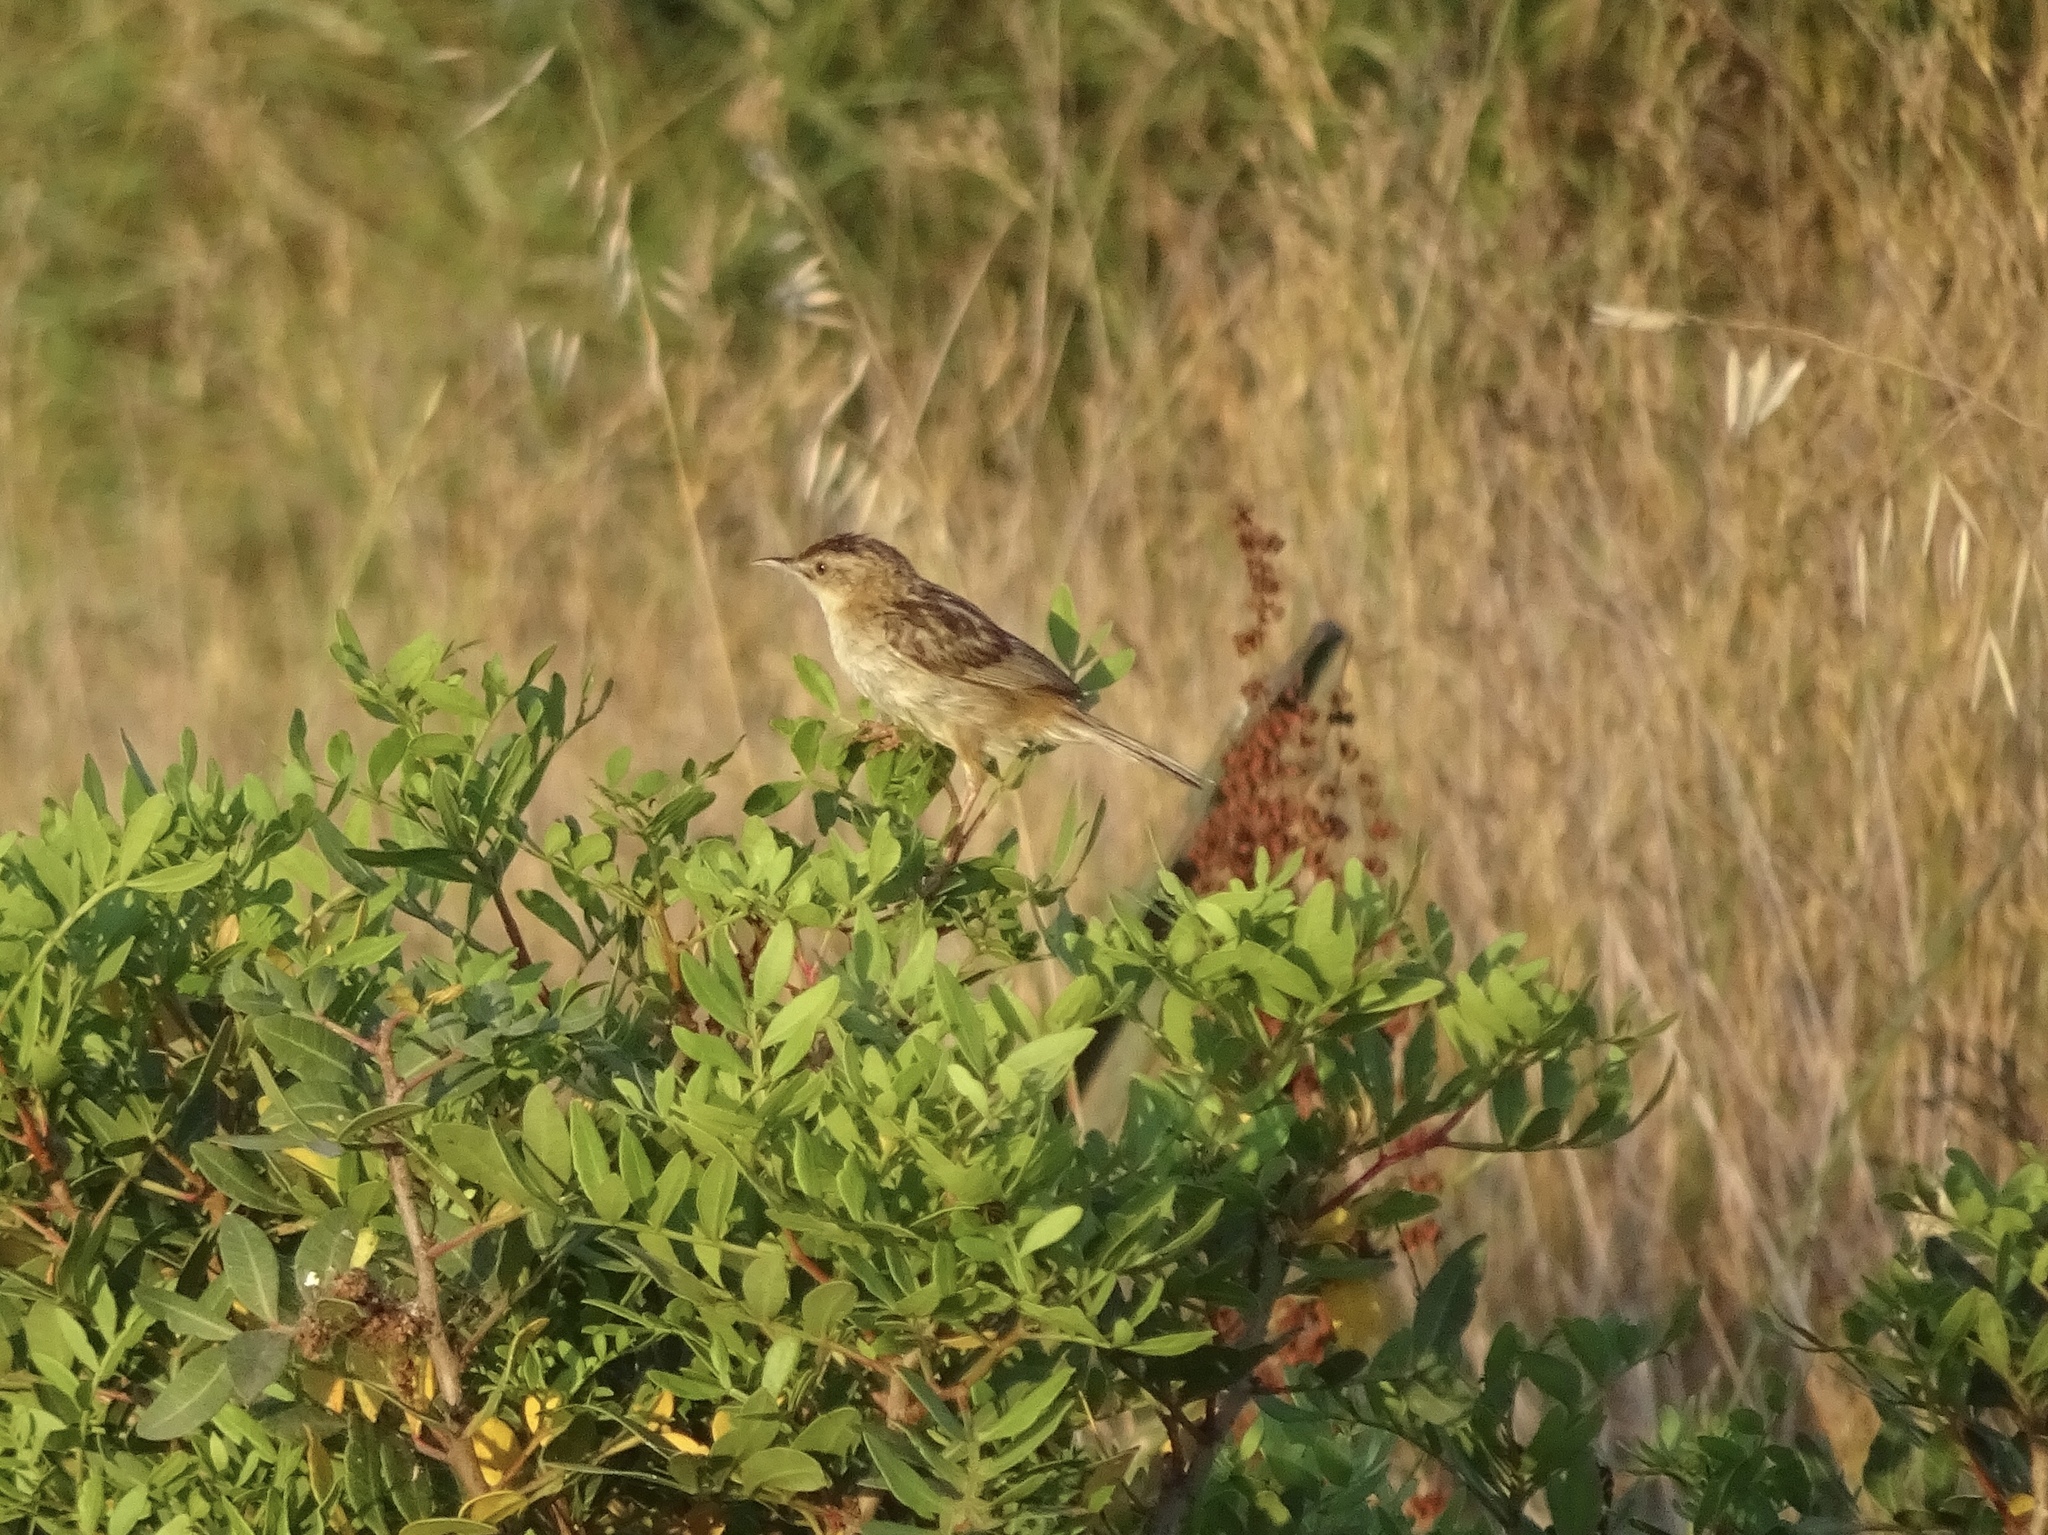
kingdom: Animalia
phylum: Chordata
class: Aves
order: Passeriformes
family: Cisticolidae
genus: Cisticola
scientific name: Cisticola juncidis
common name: Zitting cisticola
